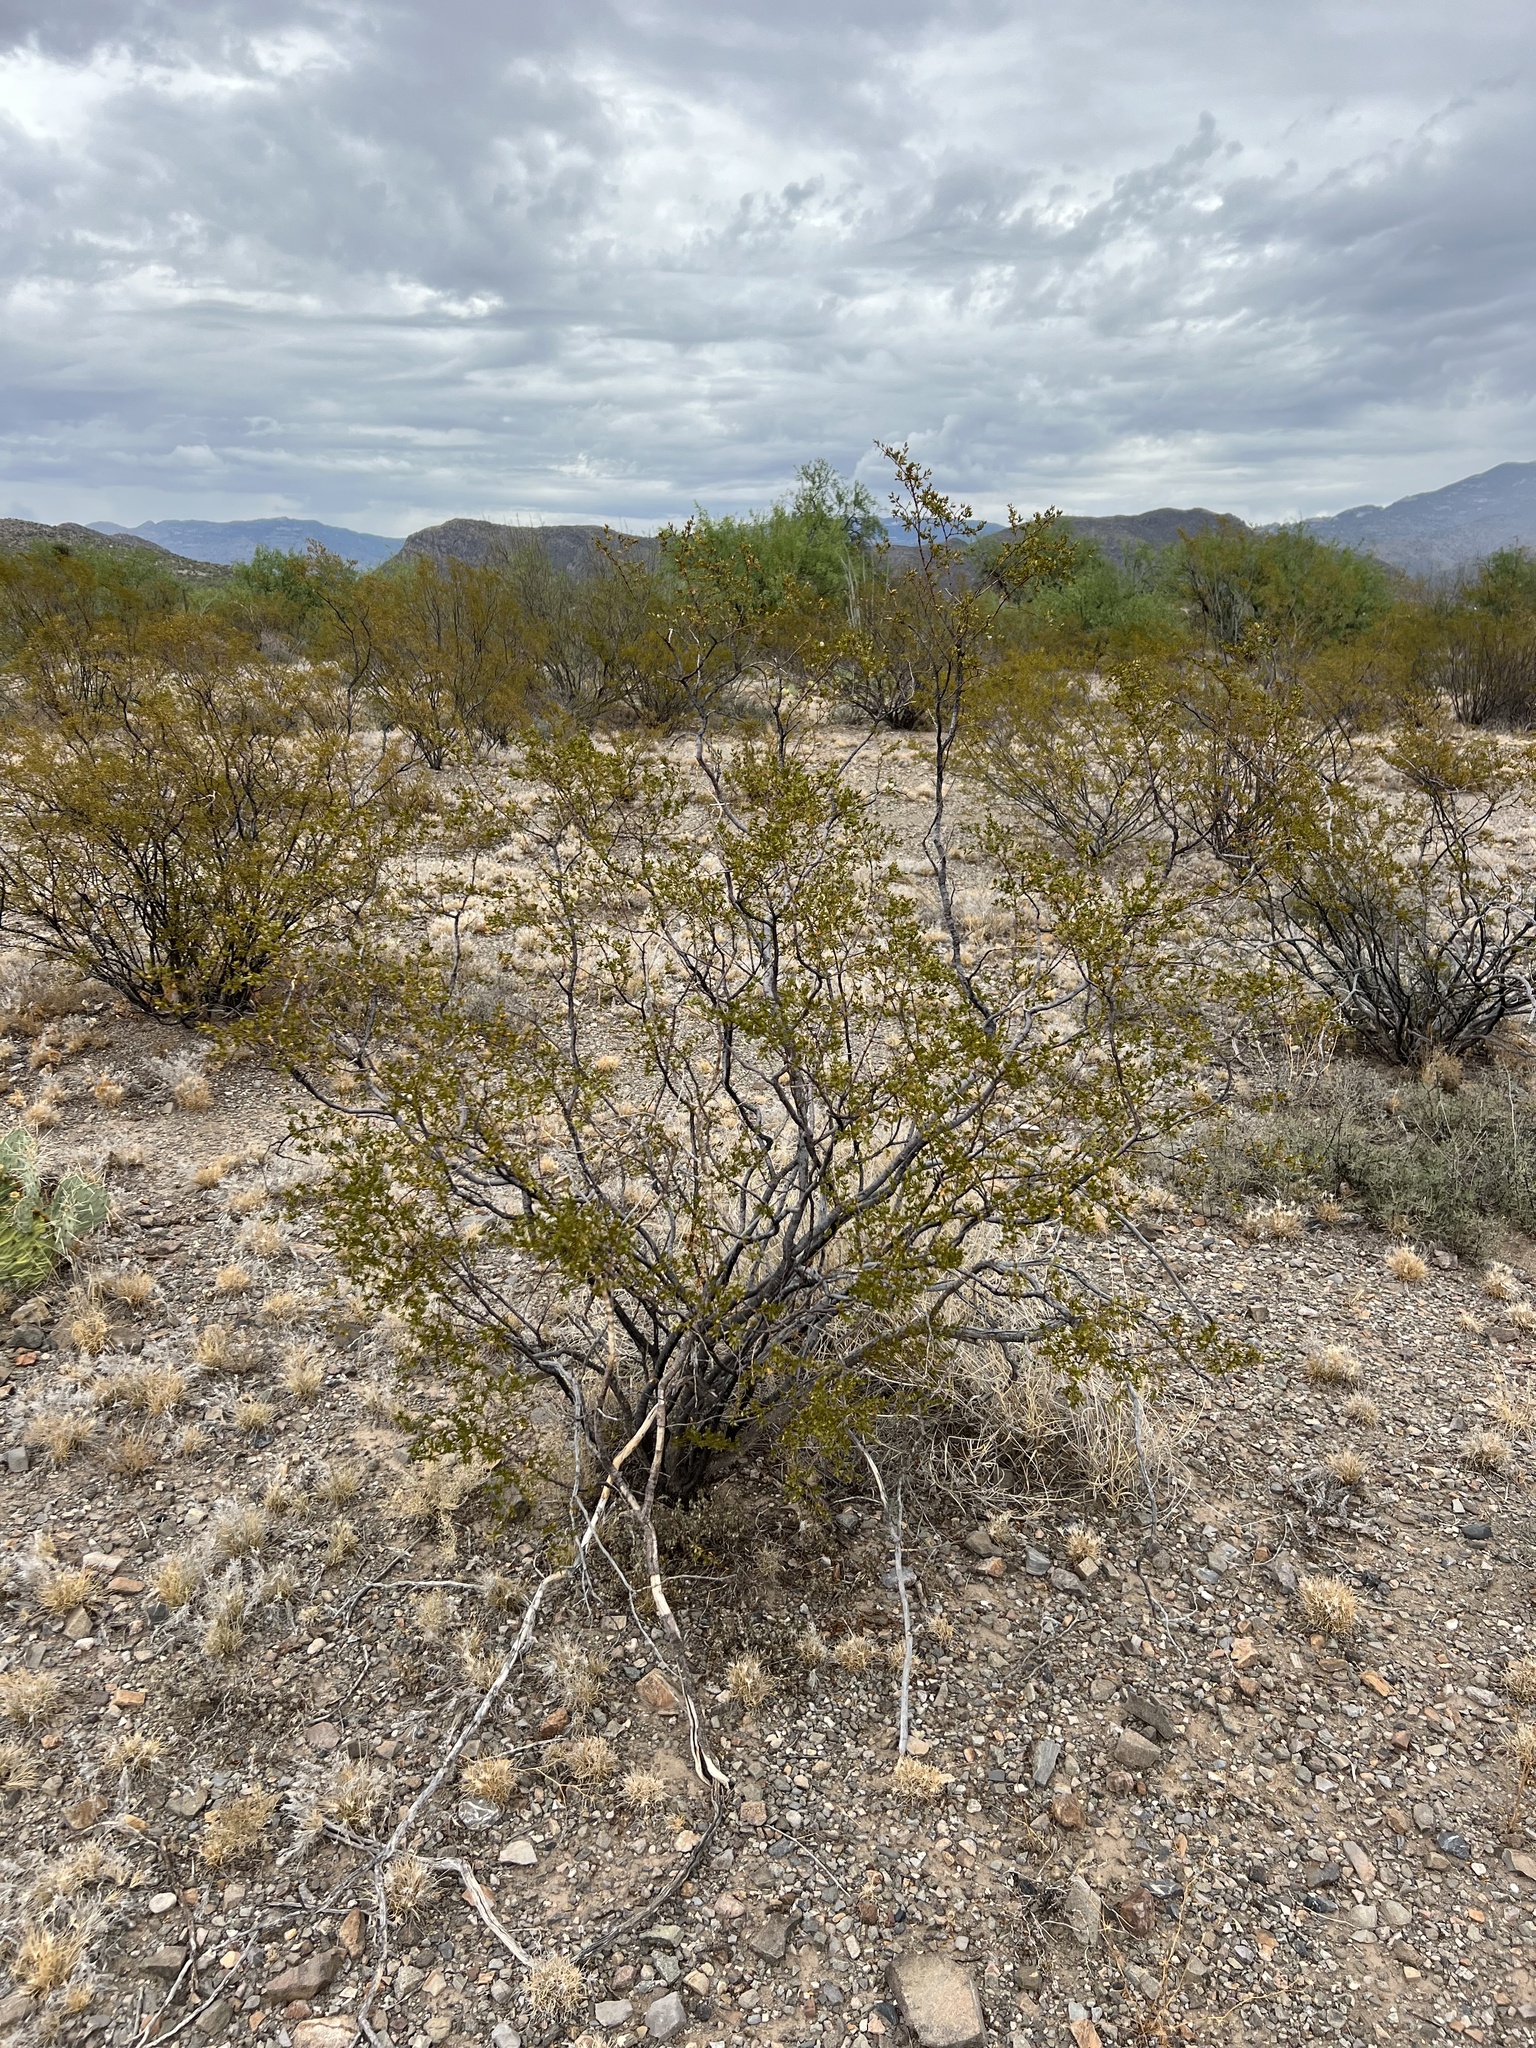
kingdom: Plantae
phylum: Tracheophyta
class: Magnoliopsida
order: Zygophyllales
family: Zygophyllaceae
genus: Larrea
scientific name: Larrea tridentata
